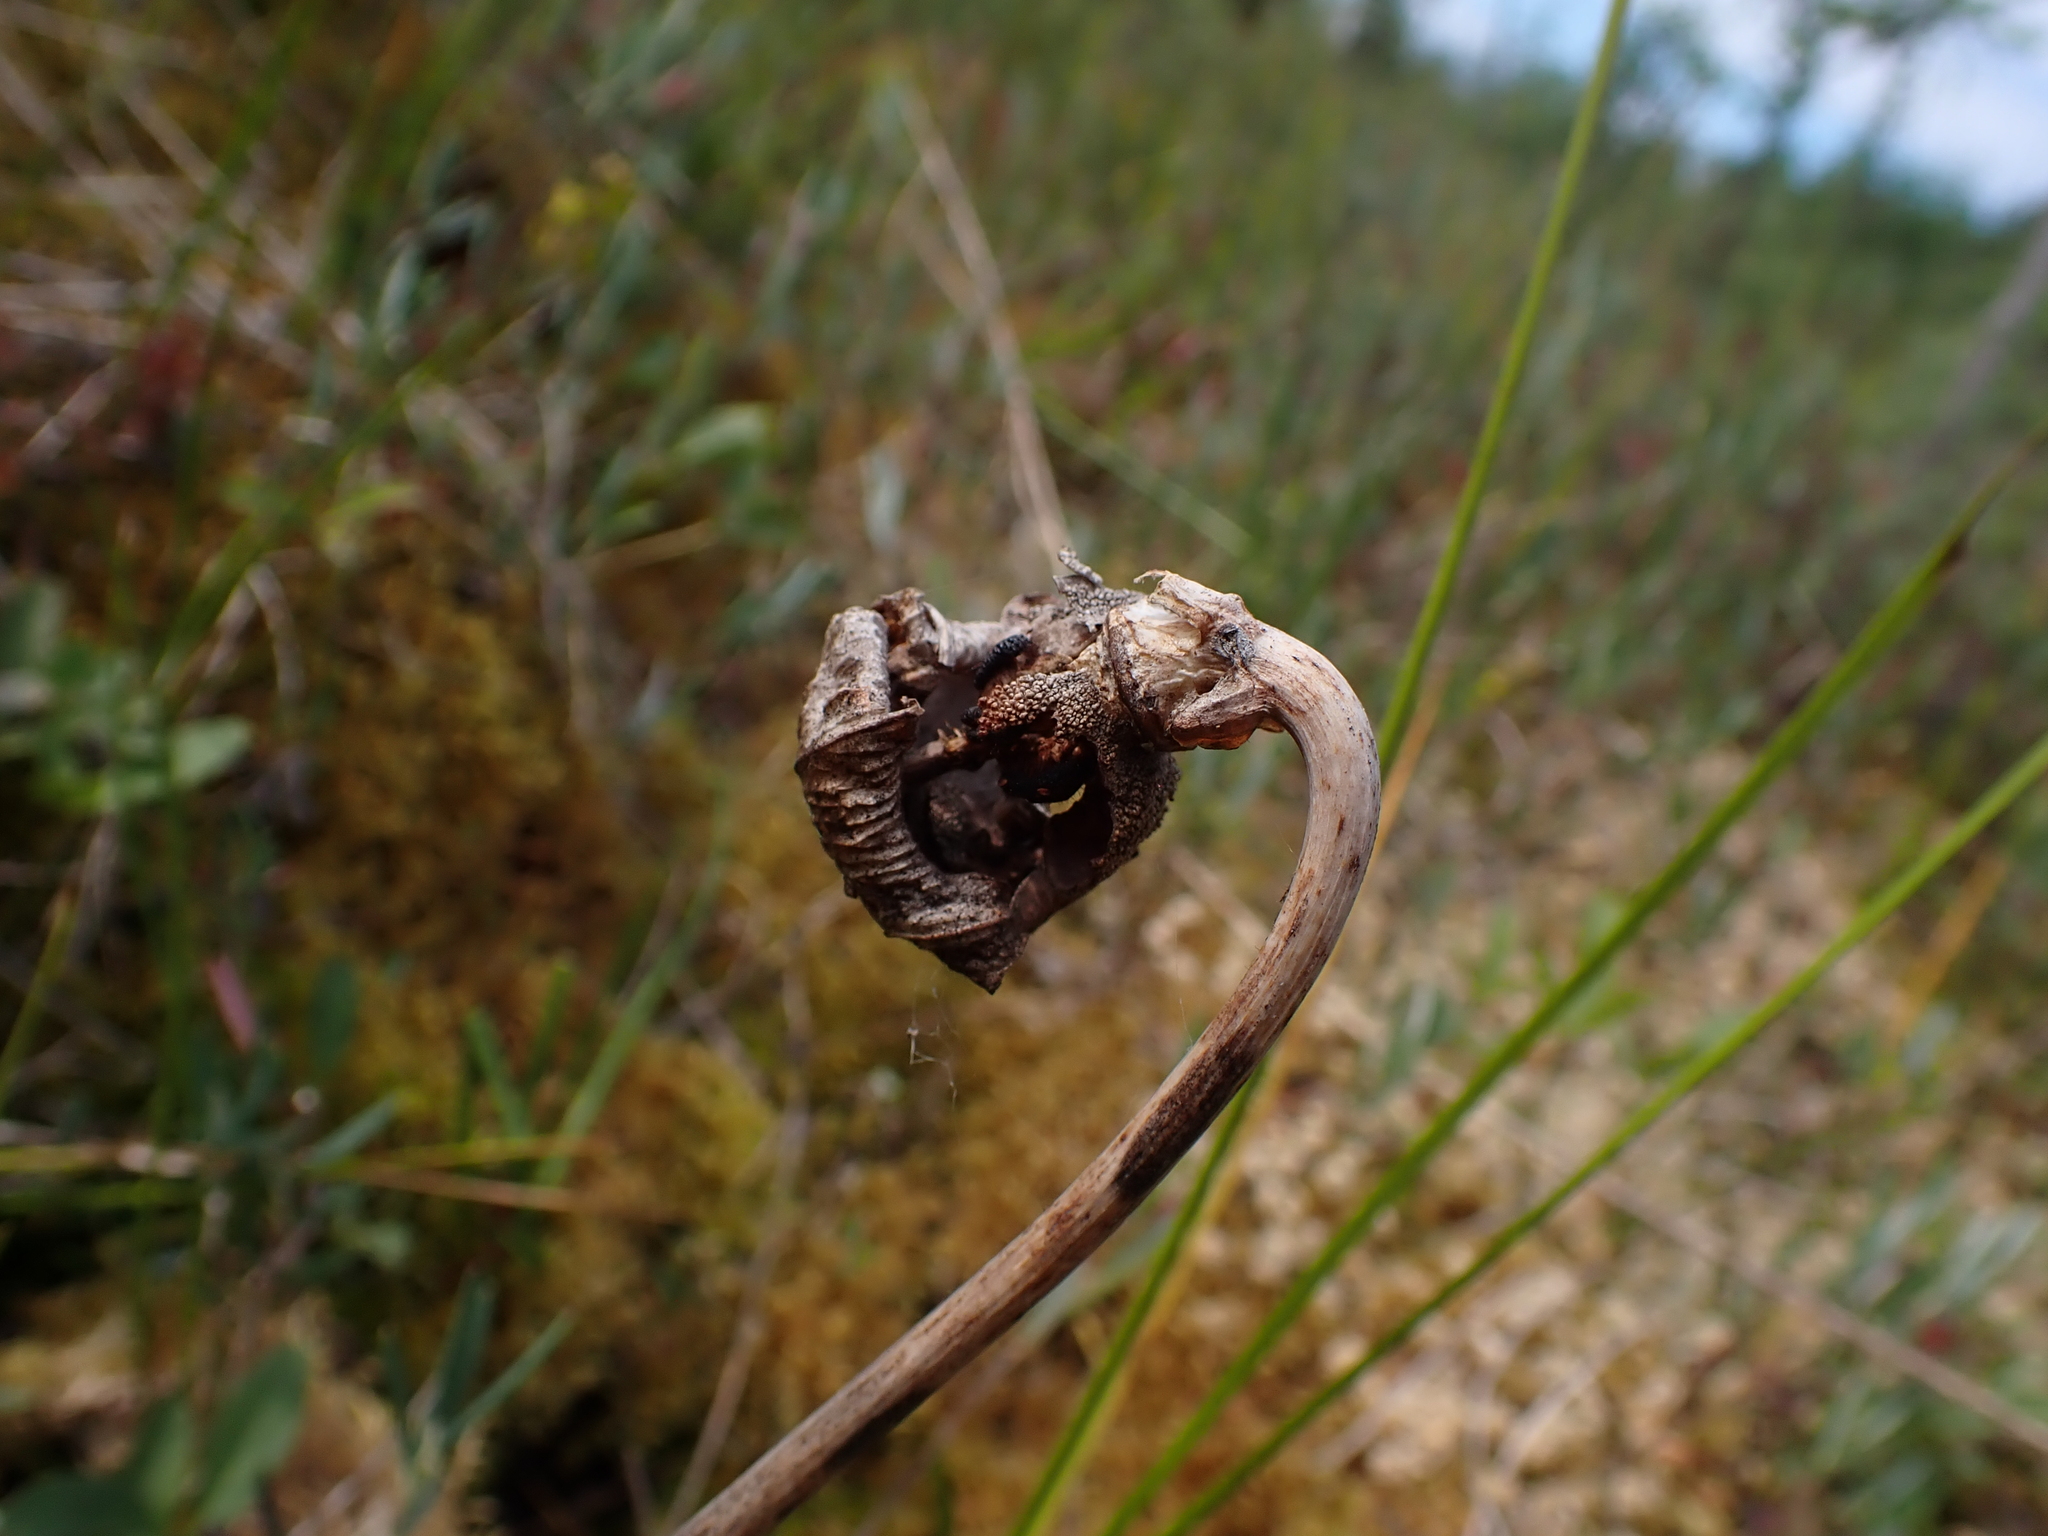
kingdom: Plantae
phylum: Tracheophyta
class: Magnoliopsida
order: Ericales
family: Sarraceniaceae
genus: Sarracenia
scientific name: Sarracenia purpurea
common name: Pitcherplant
